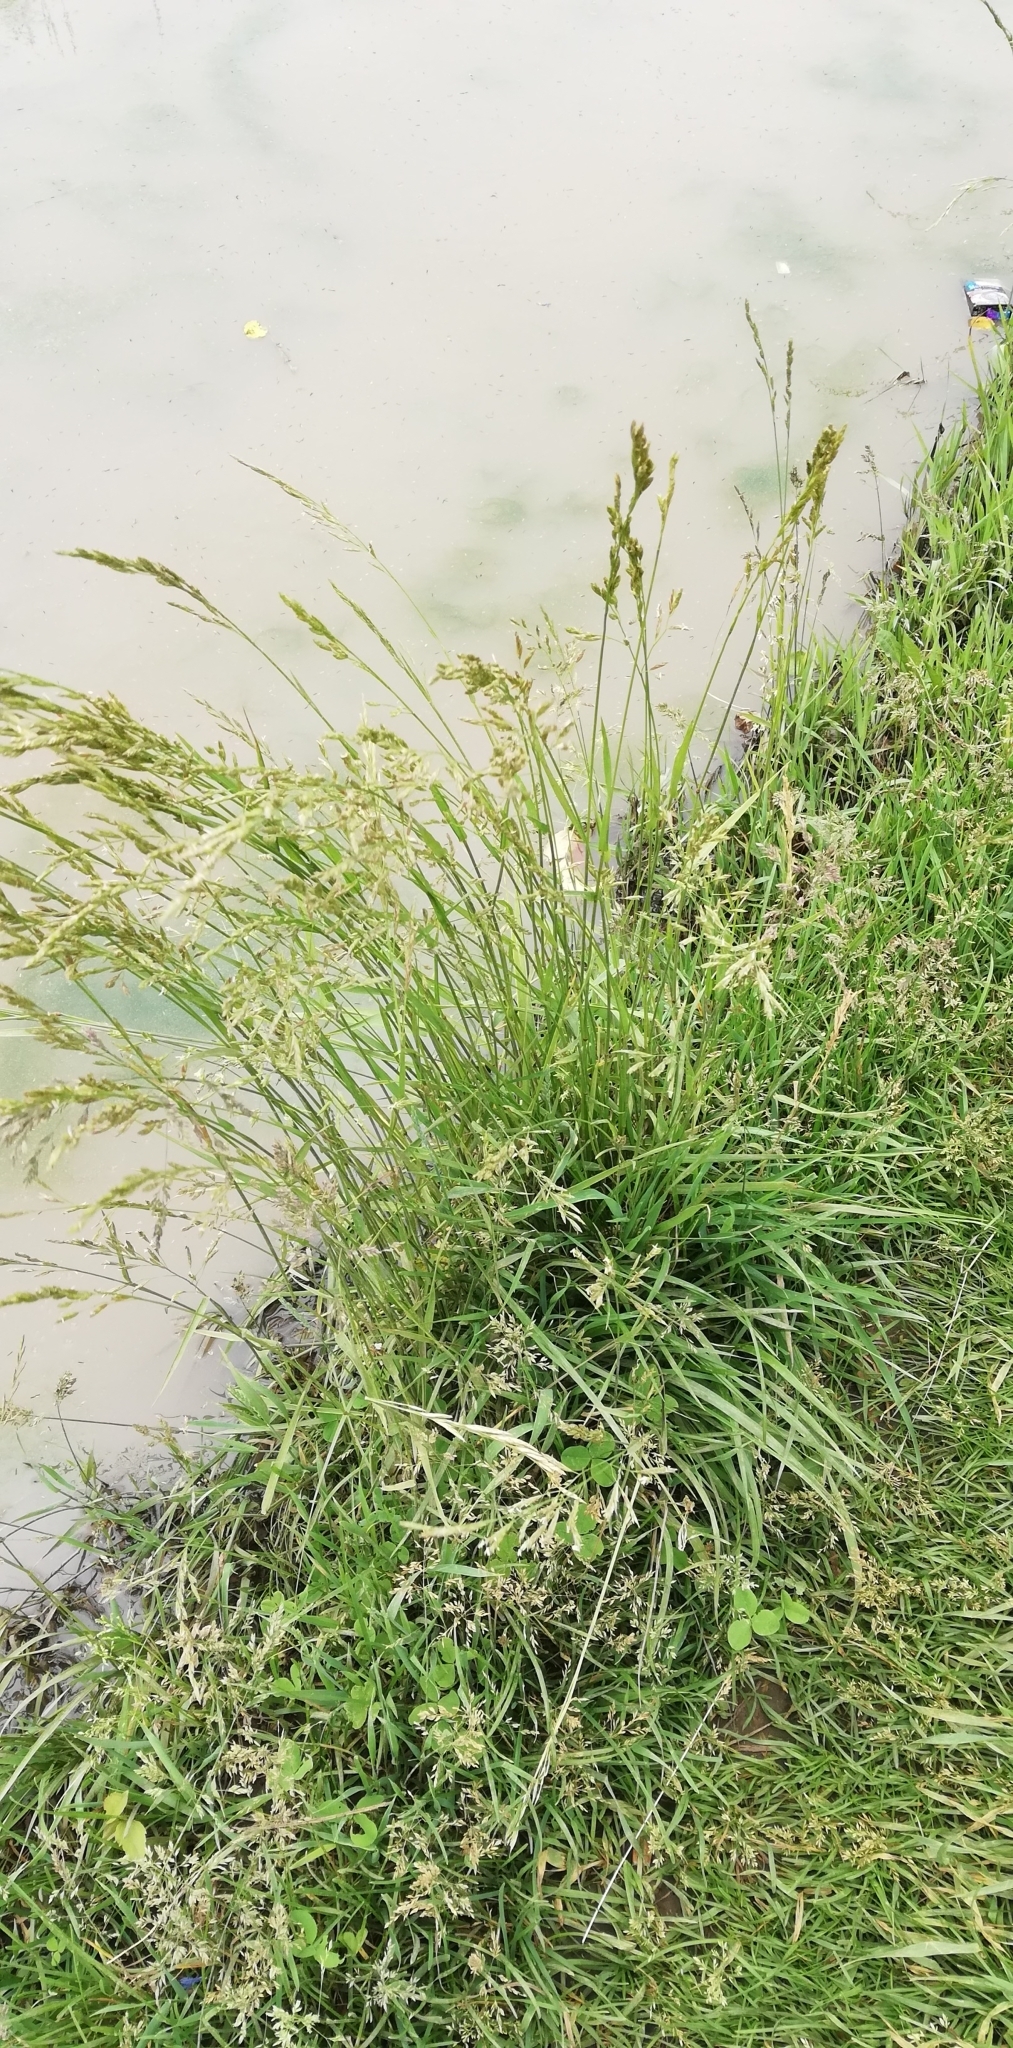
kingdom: Plantae
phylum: Tracheophyta
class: Liliopsida
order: Poales
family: Poaceae
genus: Lolium
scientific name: Lolium pratense
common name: Dover grass
